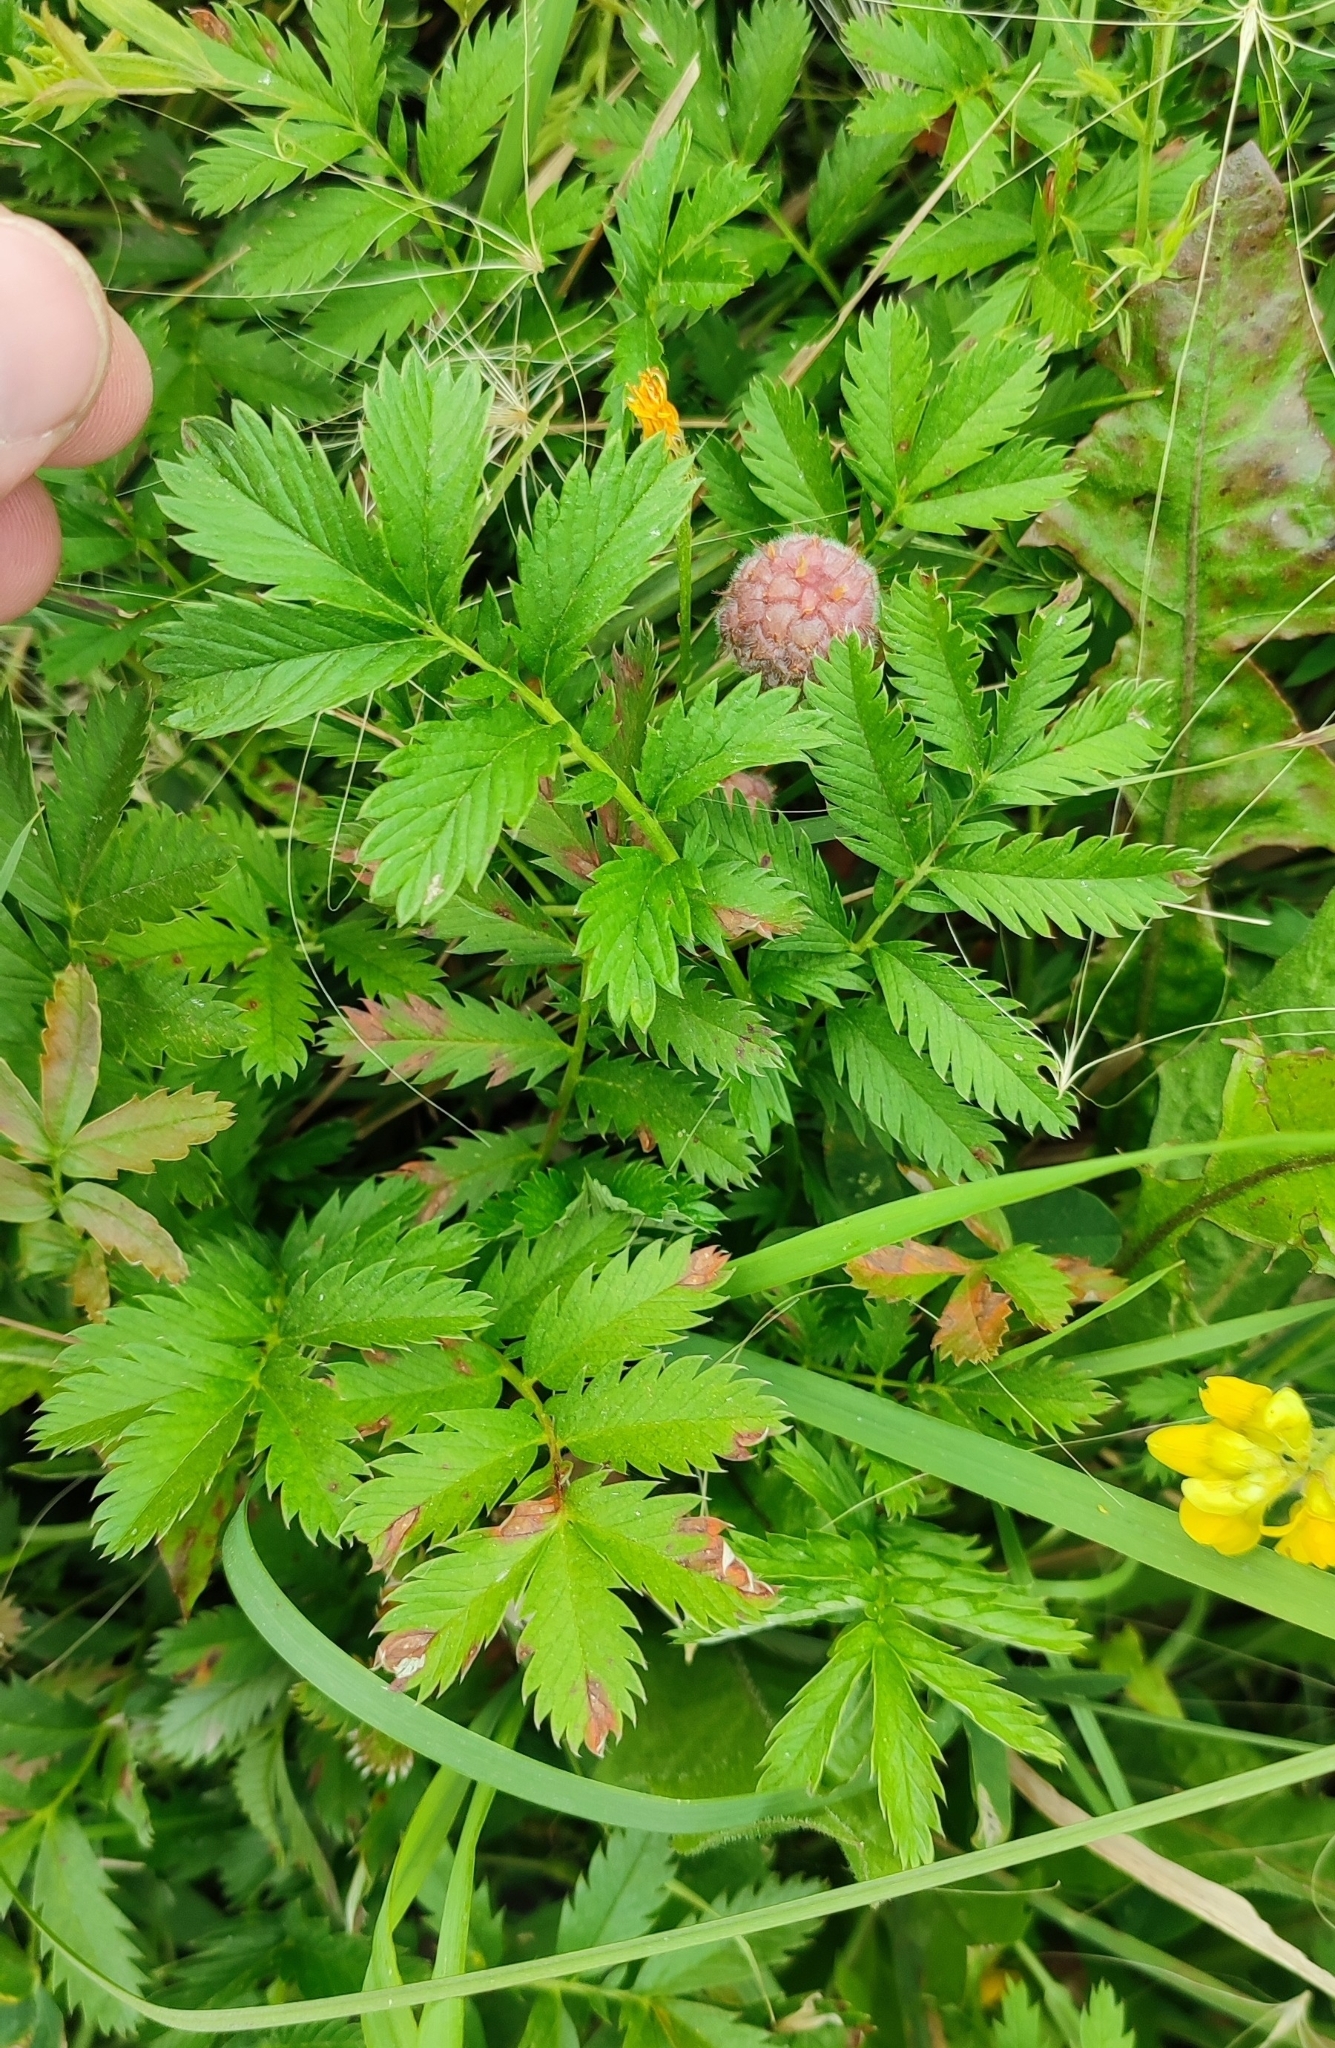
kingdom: Plantae
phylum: Tracheophyta
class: Magnoliopsida
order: Rosales
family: Rosaceae
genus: Argentina
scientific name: Argentina anserina
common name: Common silverweed
